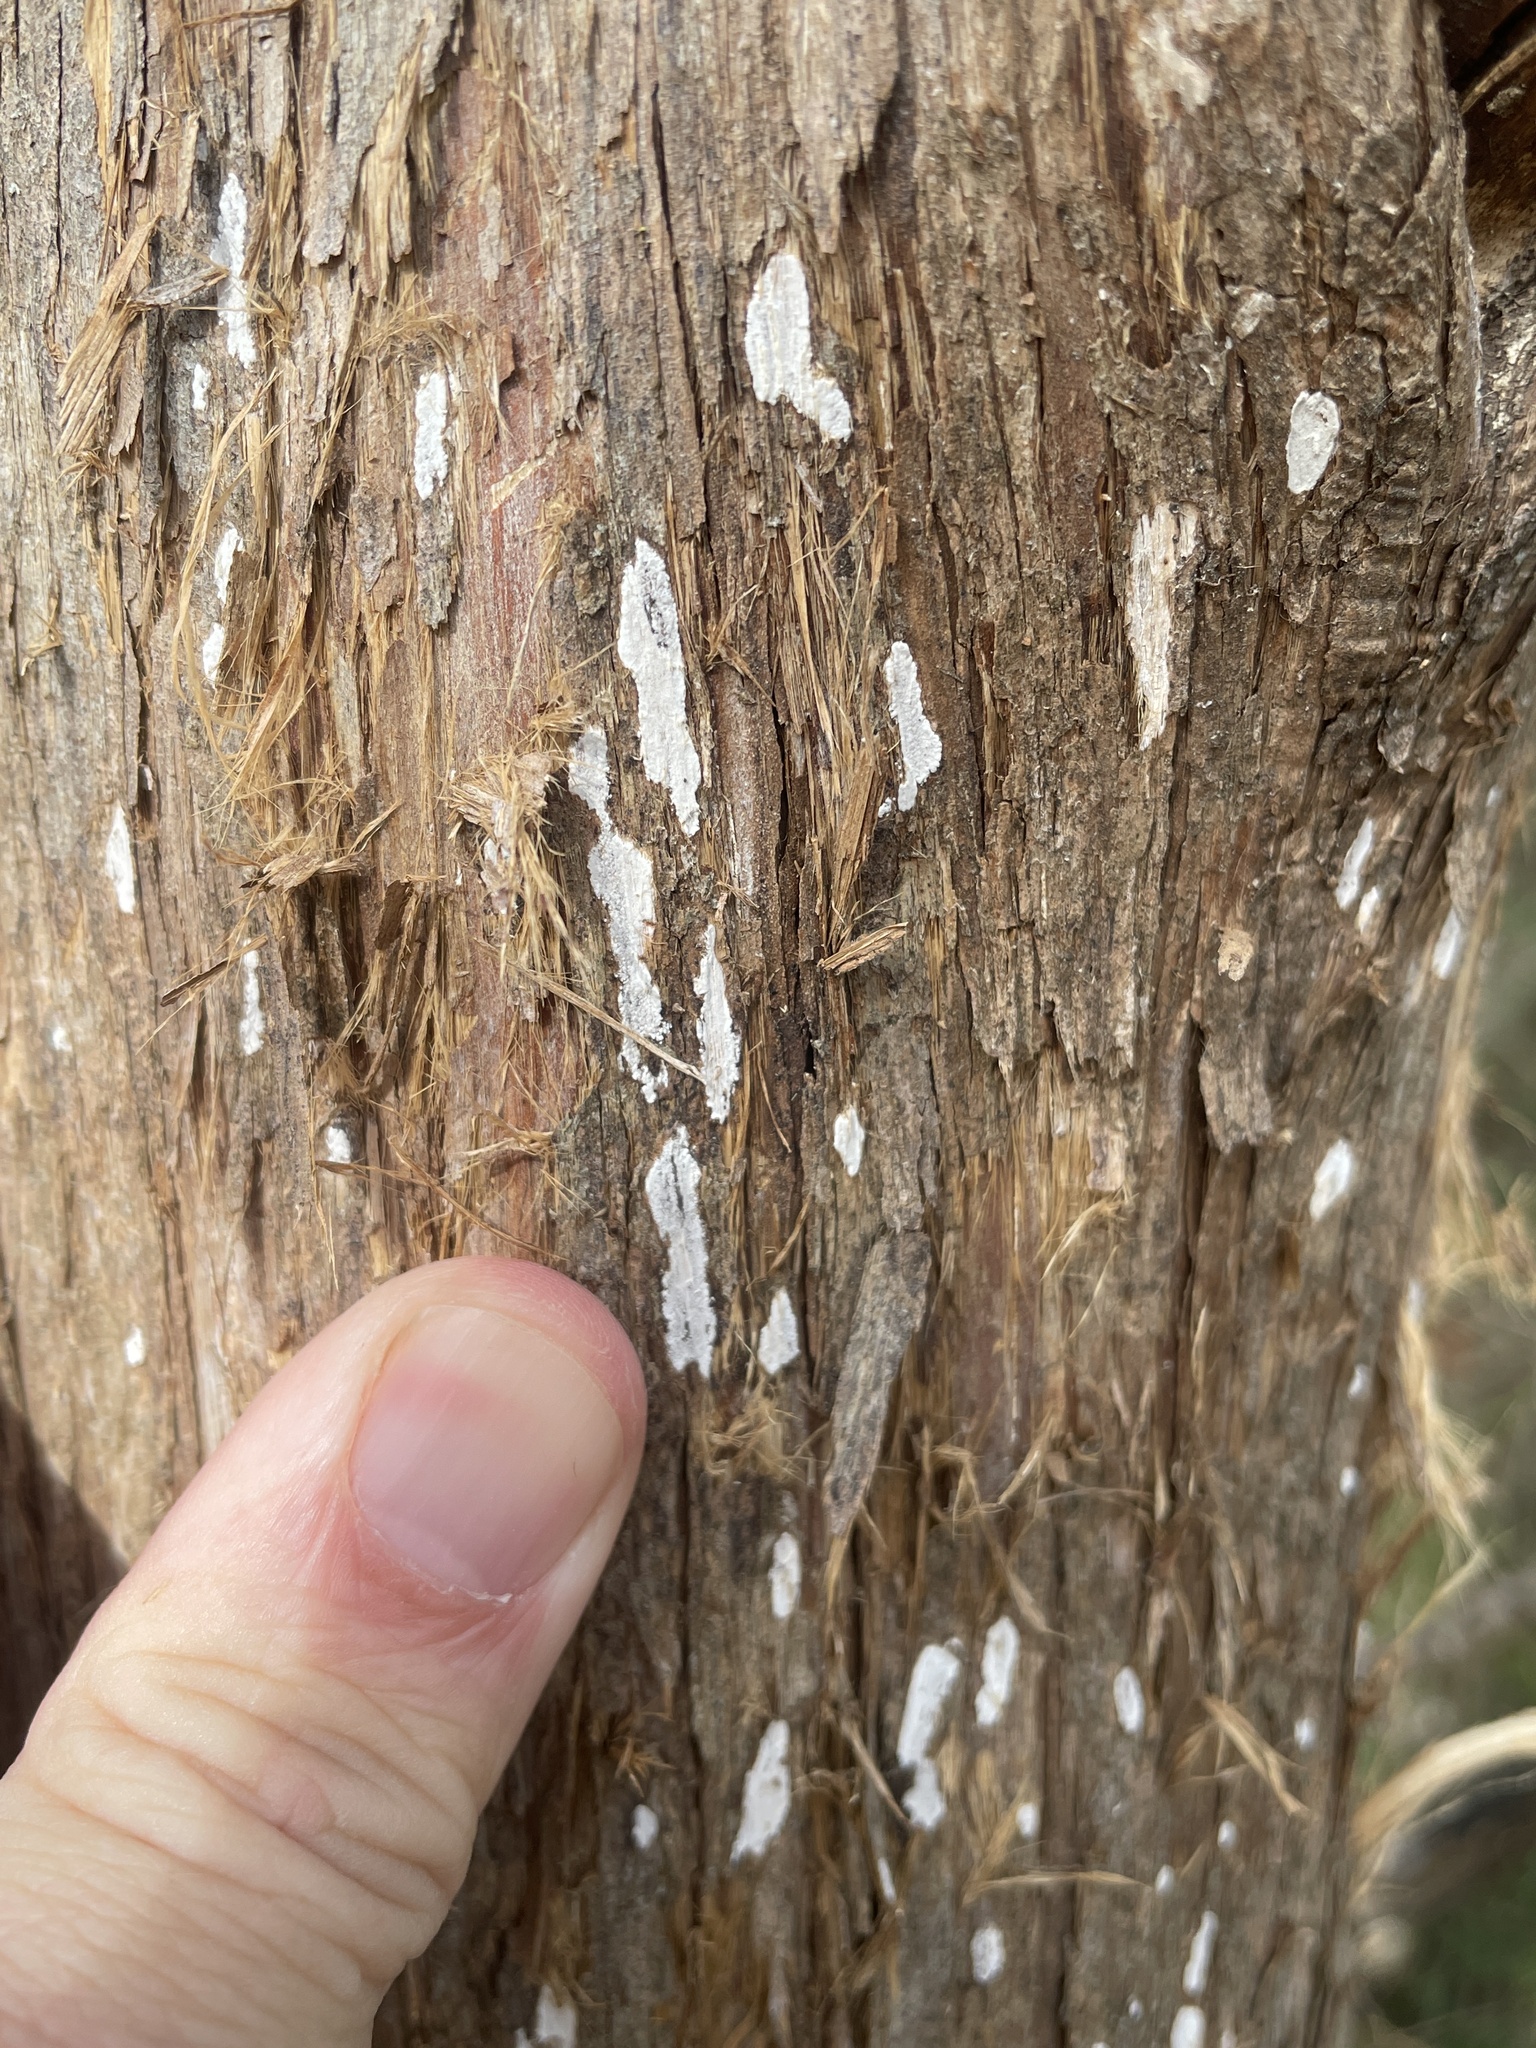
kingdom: Fungi
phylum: Basidiomycota
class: Agaricomycetes
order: Agaricales
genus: Dendrothele
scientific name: Dendrothele nivosa
